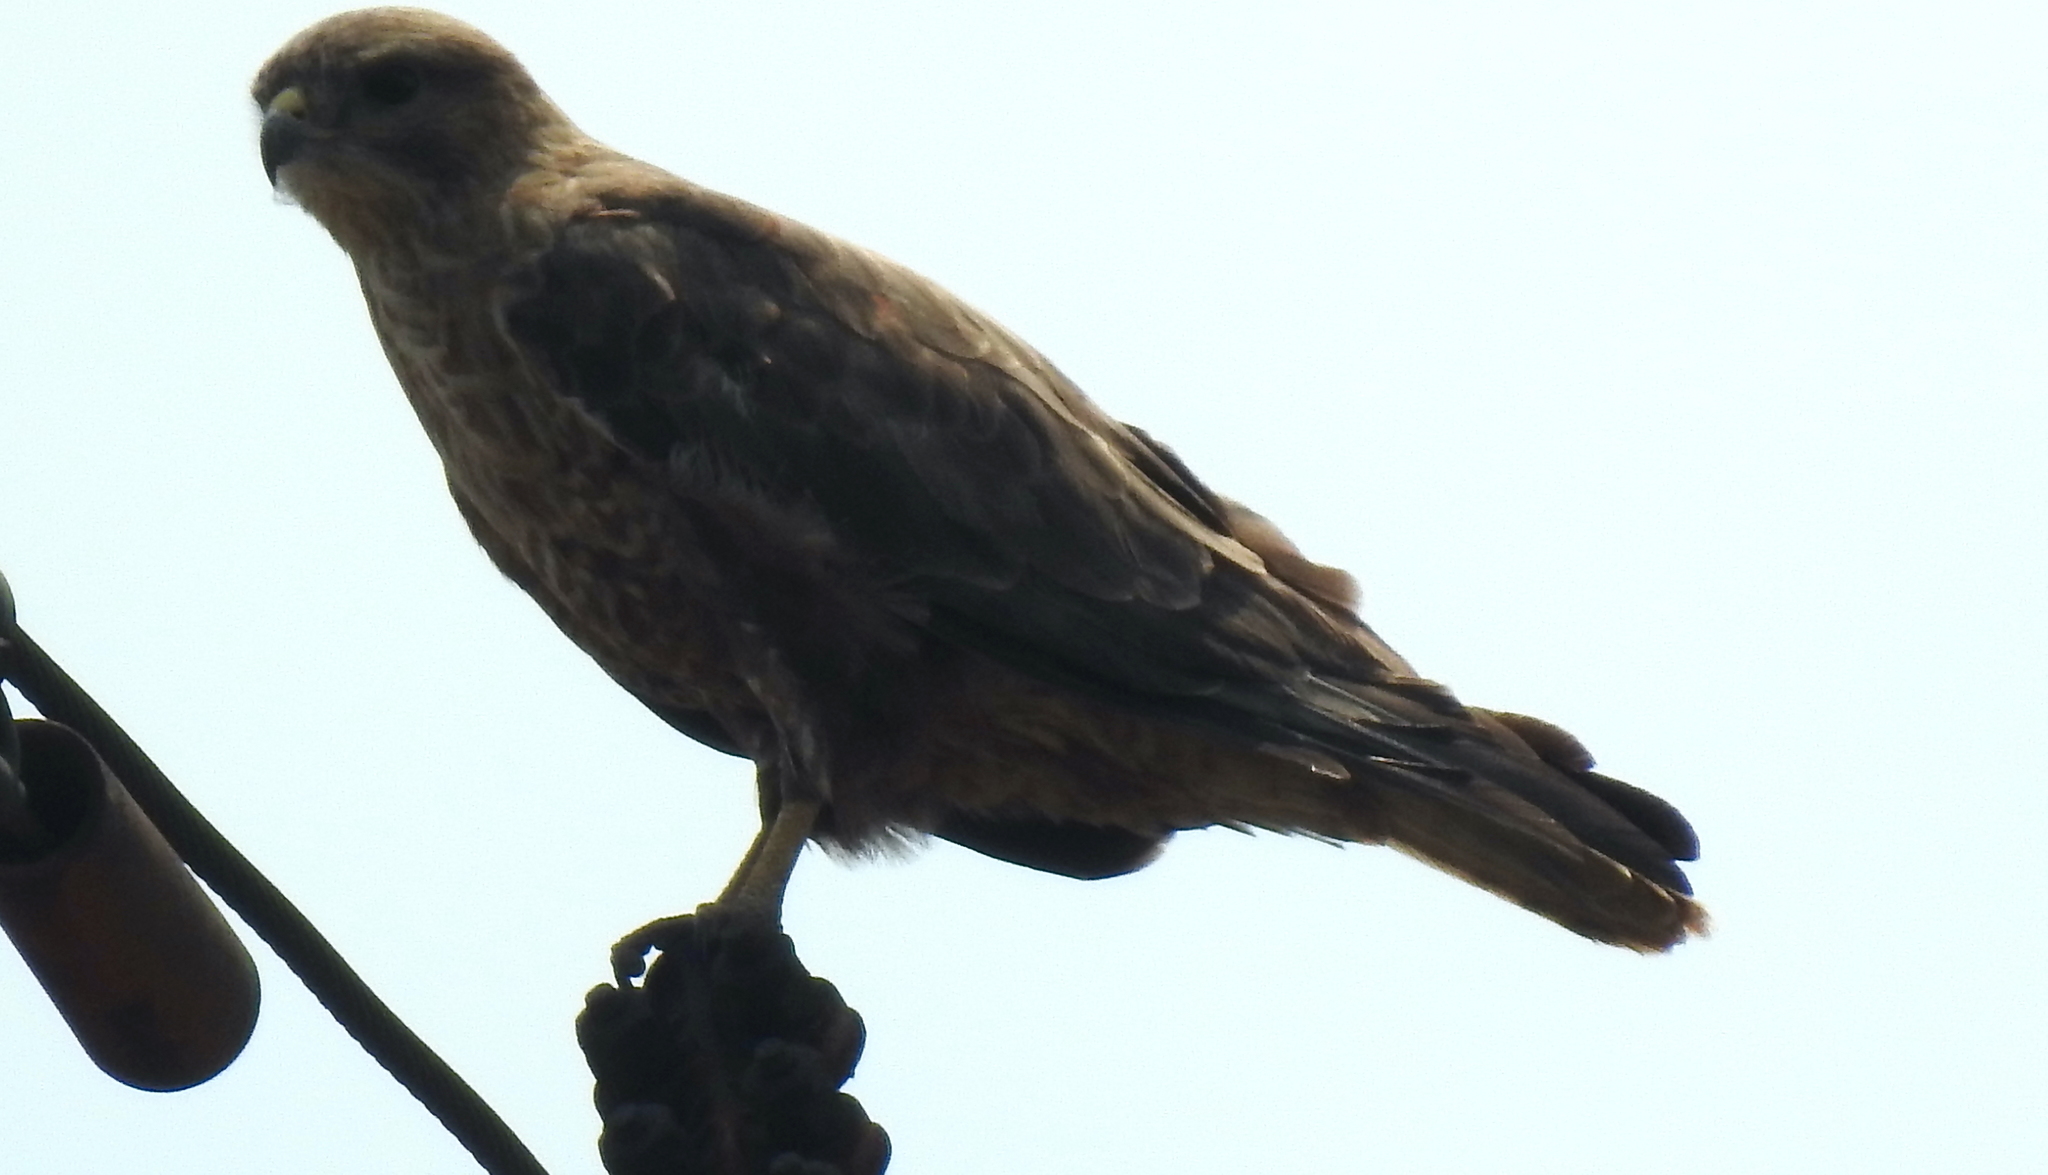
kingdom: Animalia
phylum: Chordata
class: Aves
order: Accipitriformes
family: Accipitridae
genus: Buteo
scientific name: Buteo buteo
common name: Common buzzard
